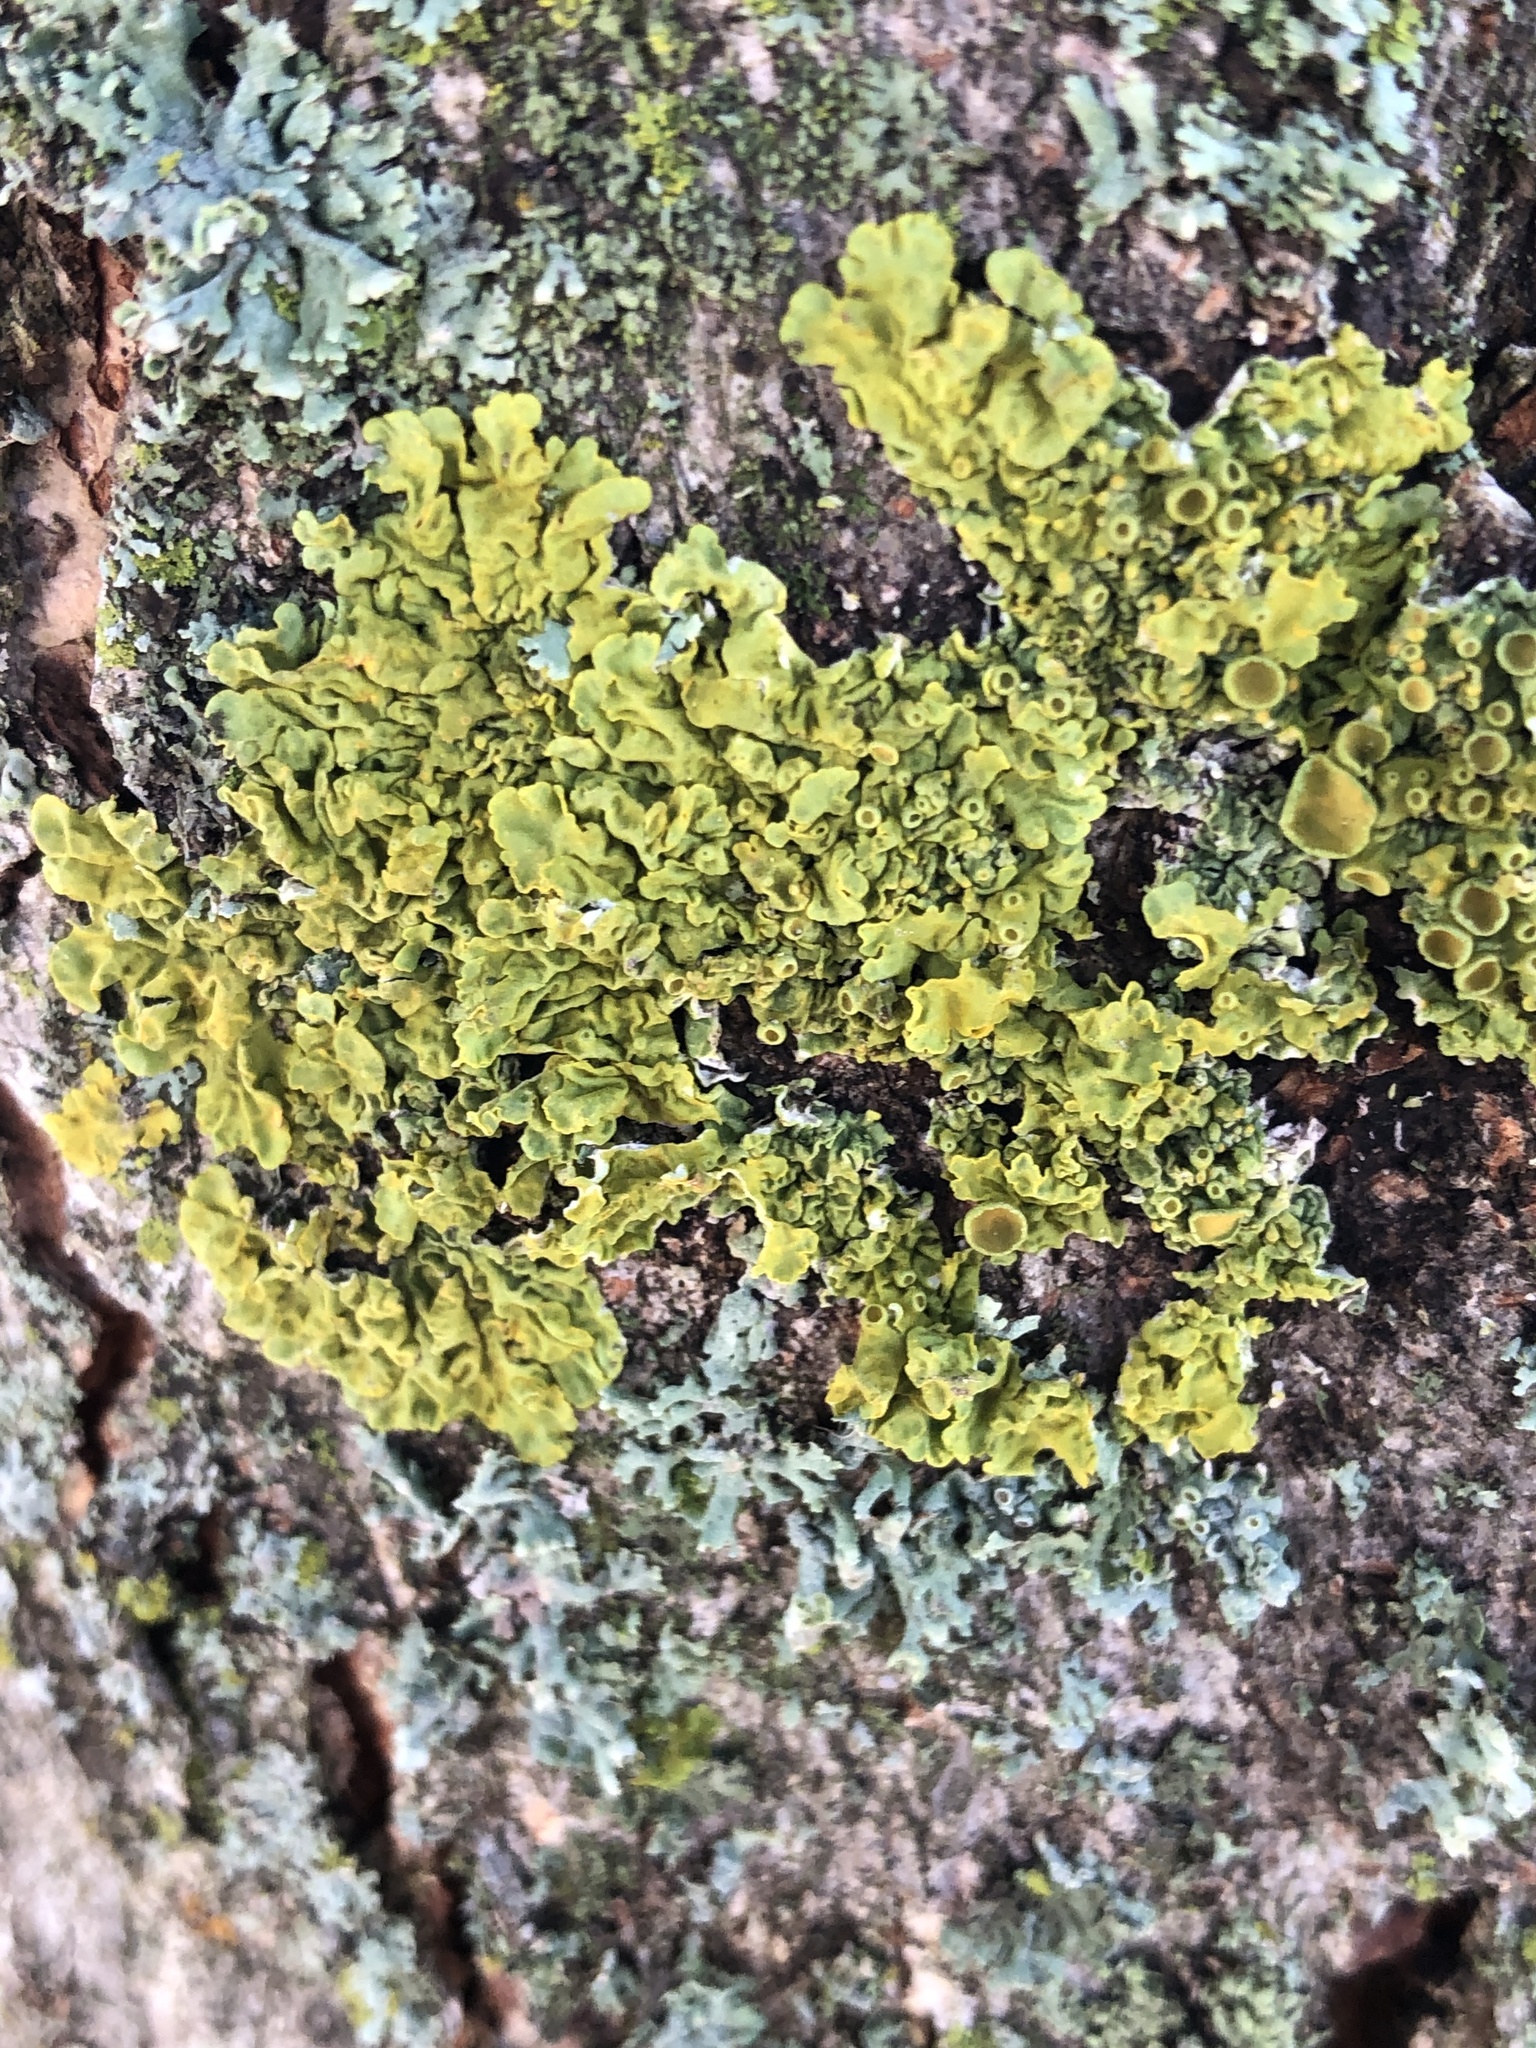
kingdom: Fungi
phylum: Ascomycota
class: Lecanoromycetes
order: Teloschistales
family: Teloschistaceae
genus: Xanthoria
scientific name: Xanthoria parietina
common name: Common orange lichen
